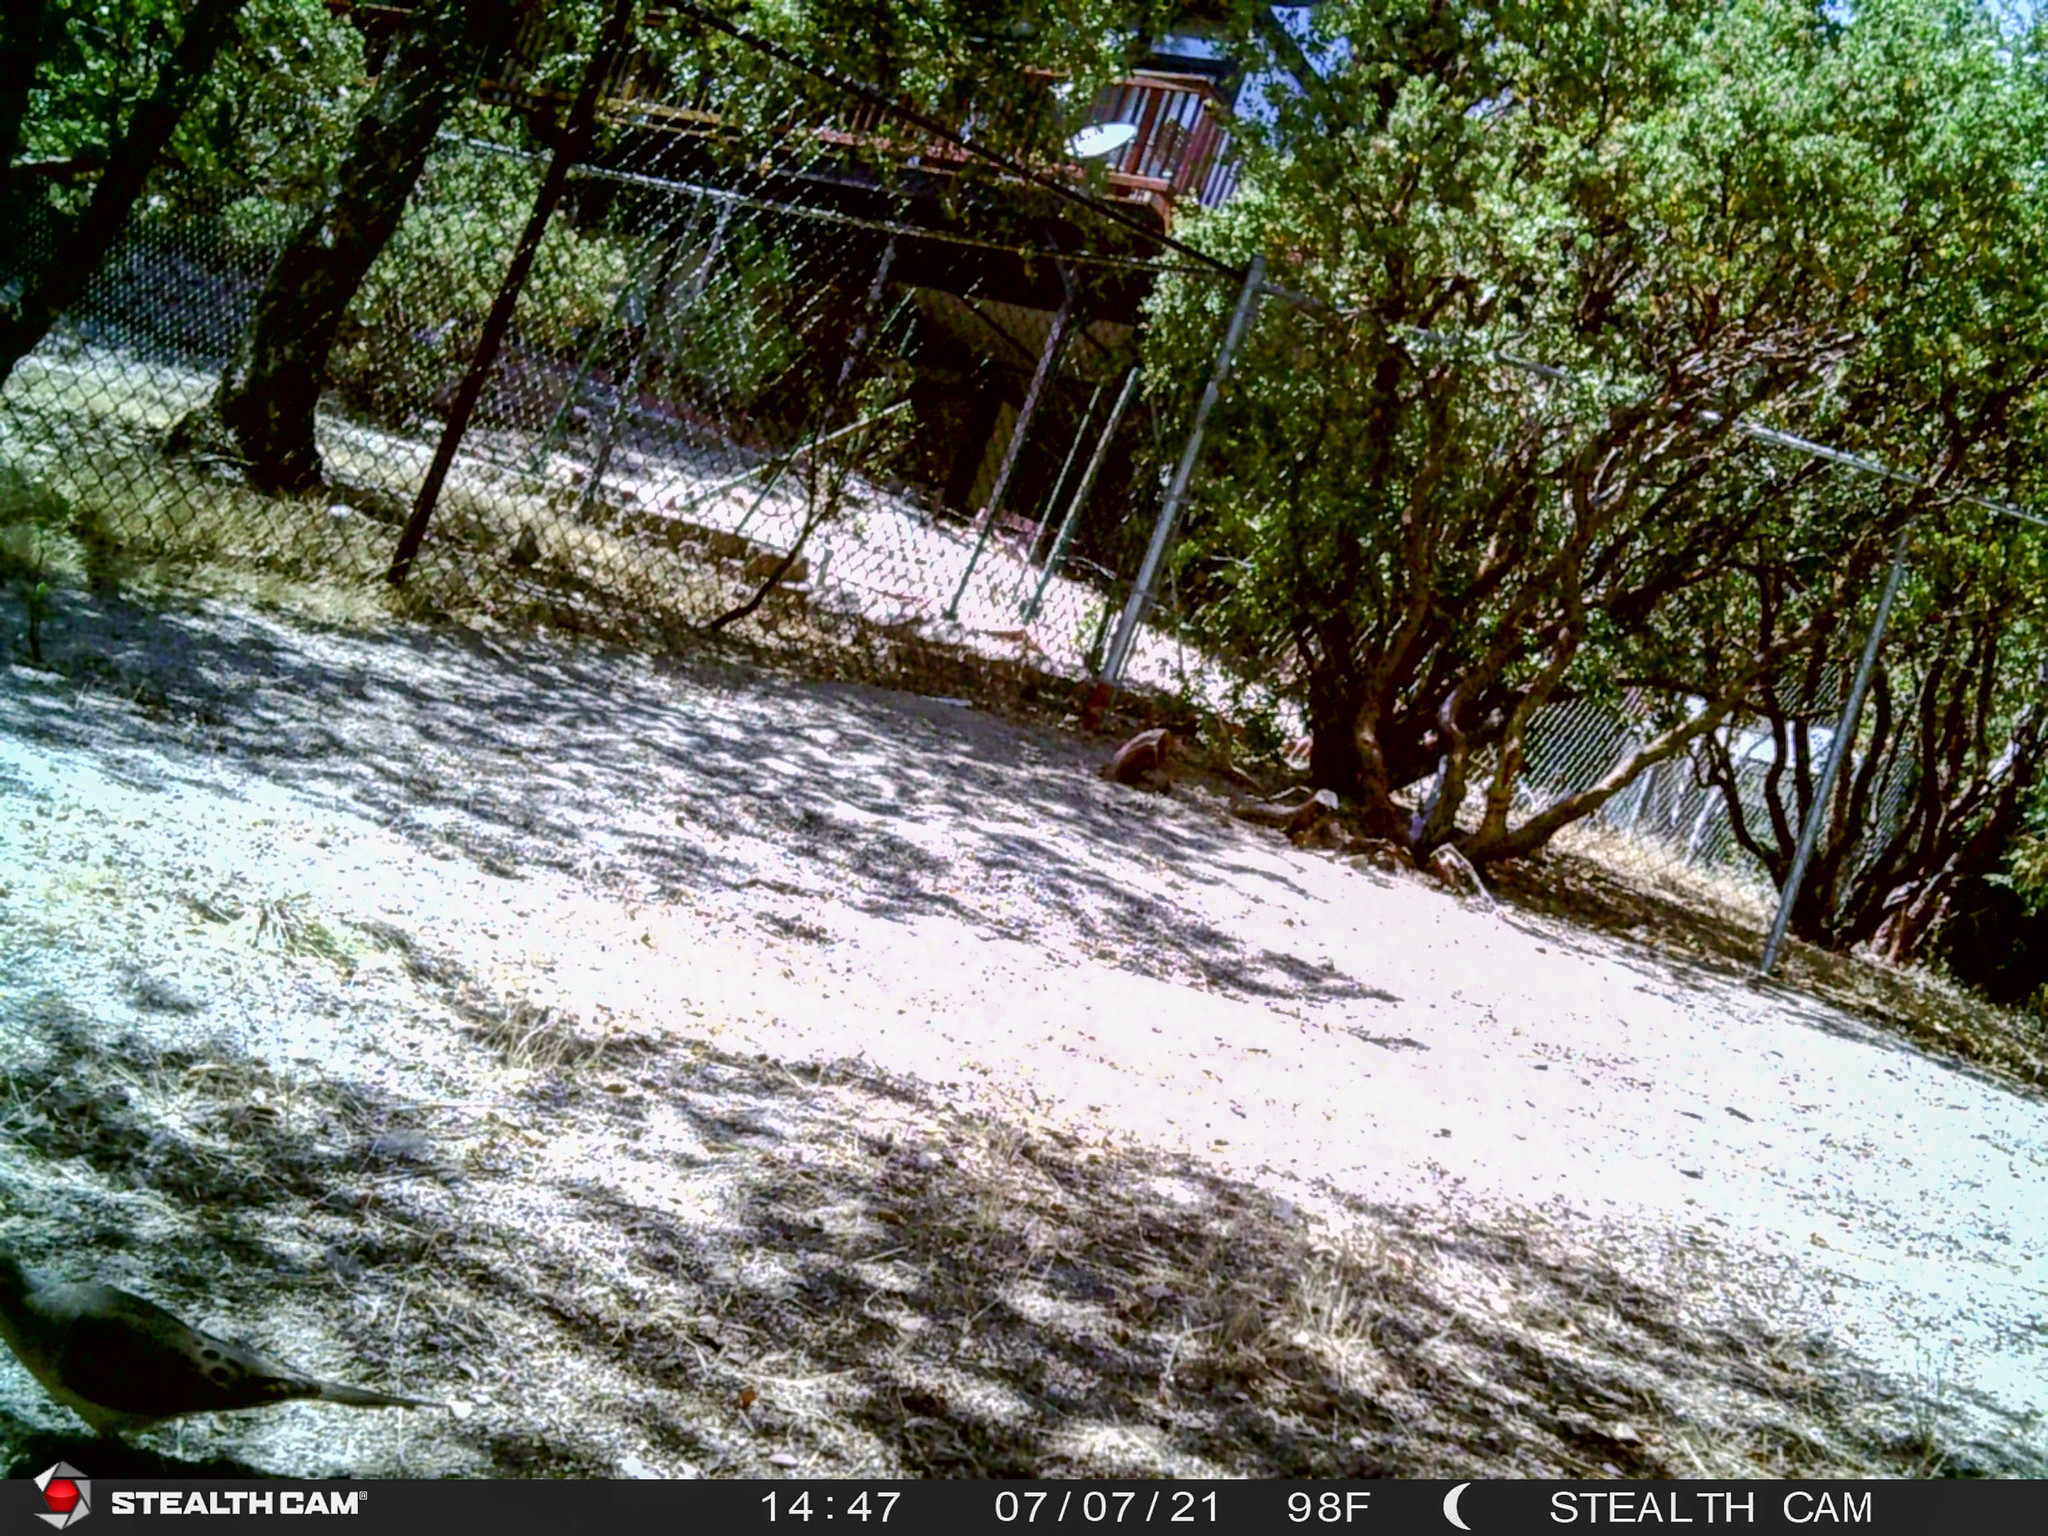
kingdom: Animalia
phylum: Chordata
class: Aves
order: Columbiformes
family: Columbidae
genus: Zenaida
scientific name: Zenaida macroura
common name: Mourning dove
